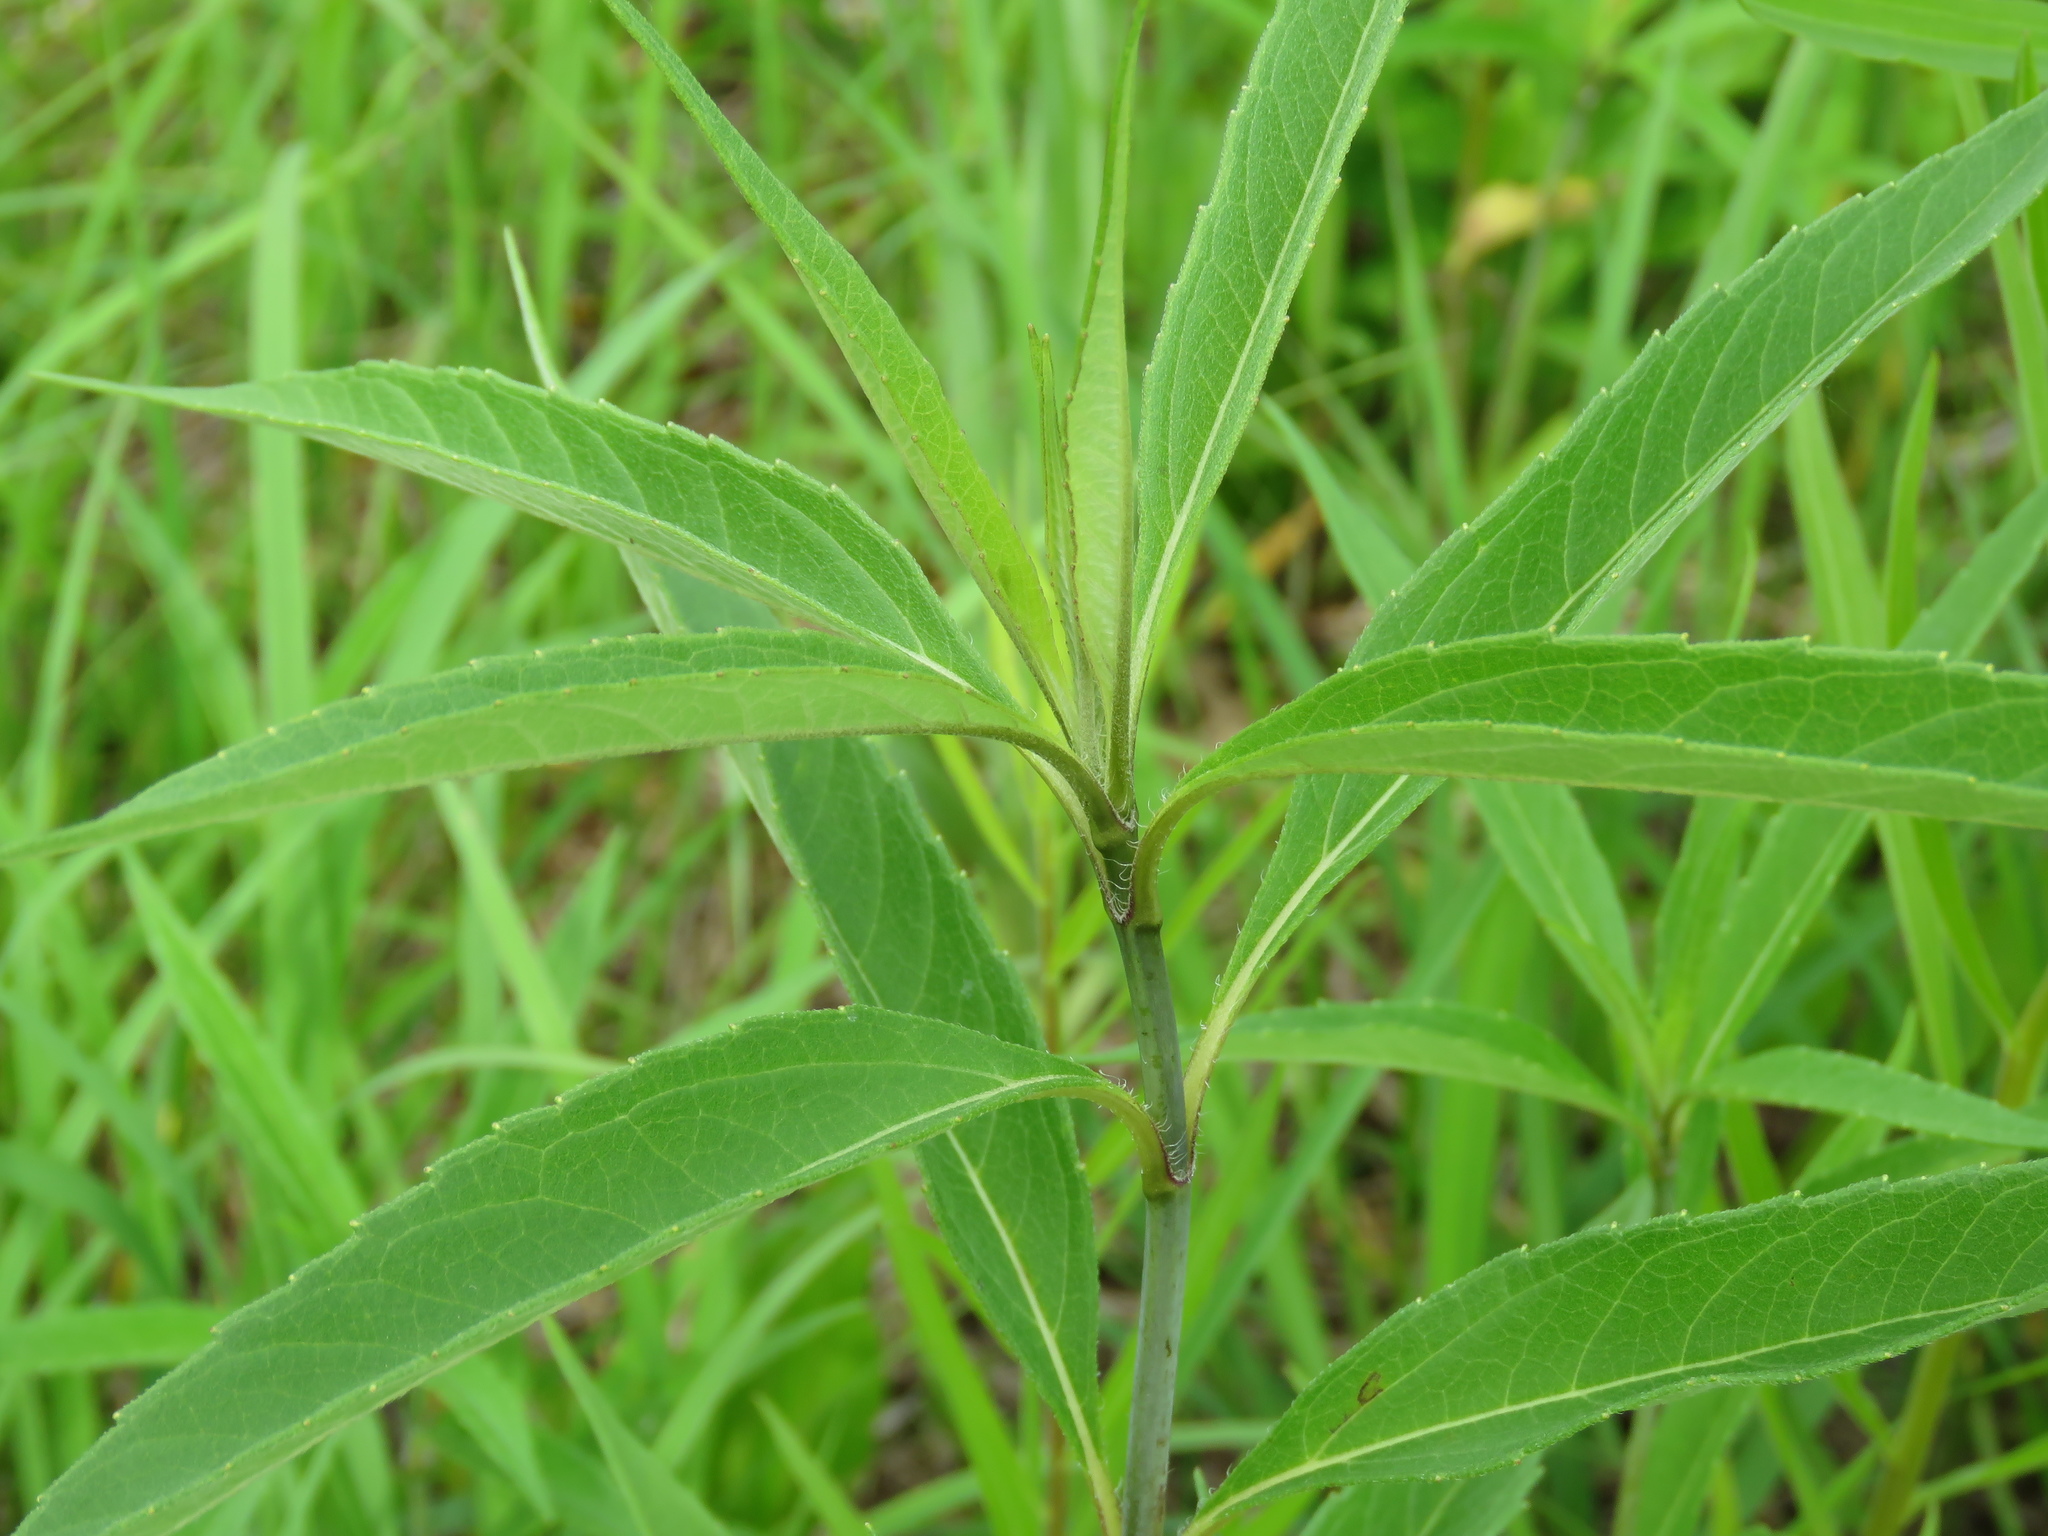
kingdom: Plantae
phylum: Tracheophyta
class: Magnoliopsida
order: Asterales
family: Asteraceae
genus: Helianthus
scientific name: Helianthus grosseserratus
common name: Sawtooth sunflower
